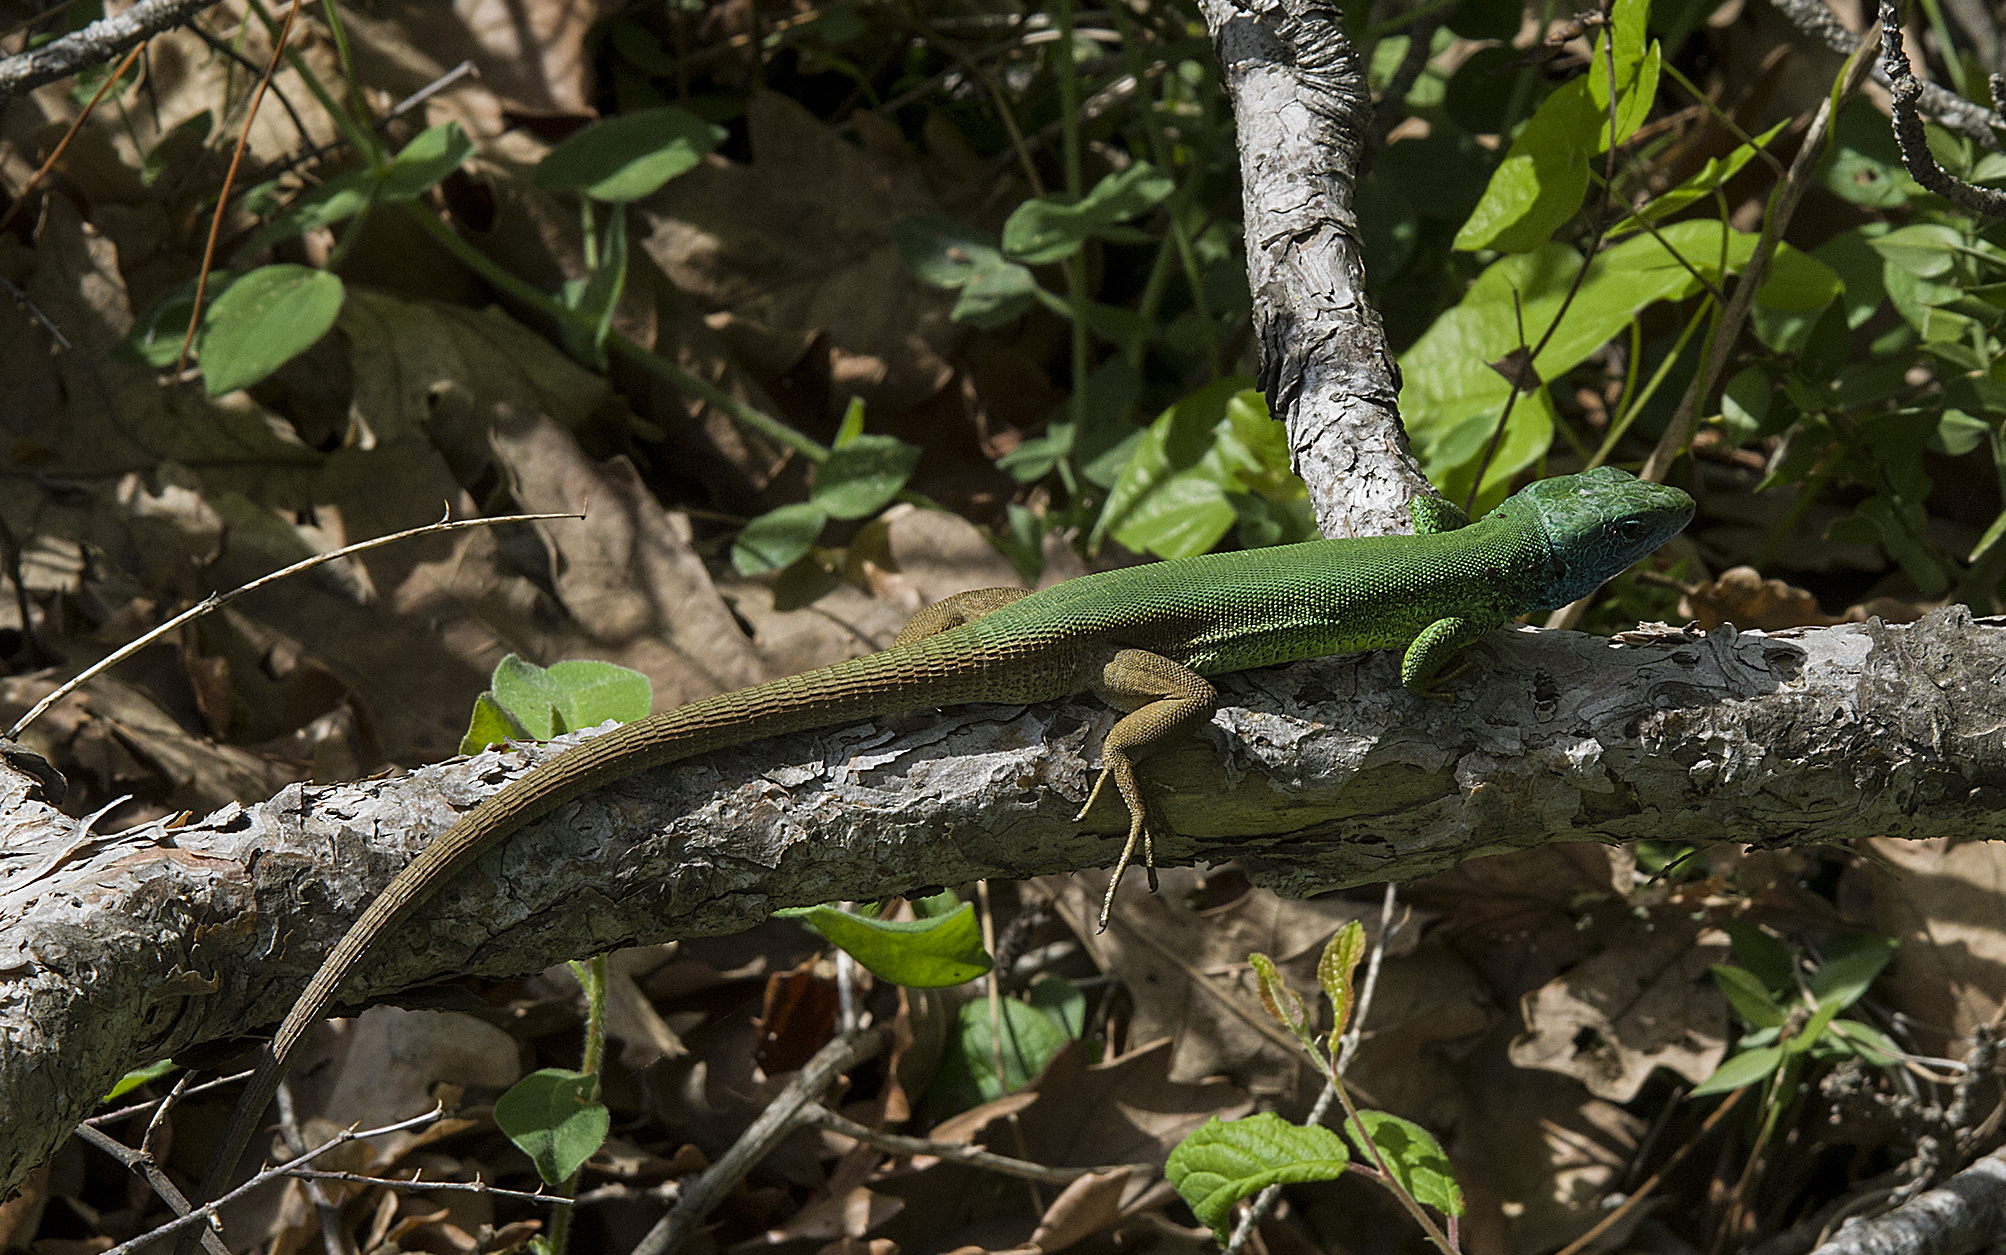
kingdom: Animalia
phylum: Chordata
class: Squamata
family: Lacertidae
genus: Lacerta
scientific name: Lacerta viridis
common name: European green lizard
